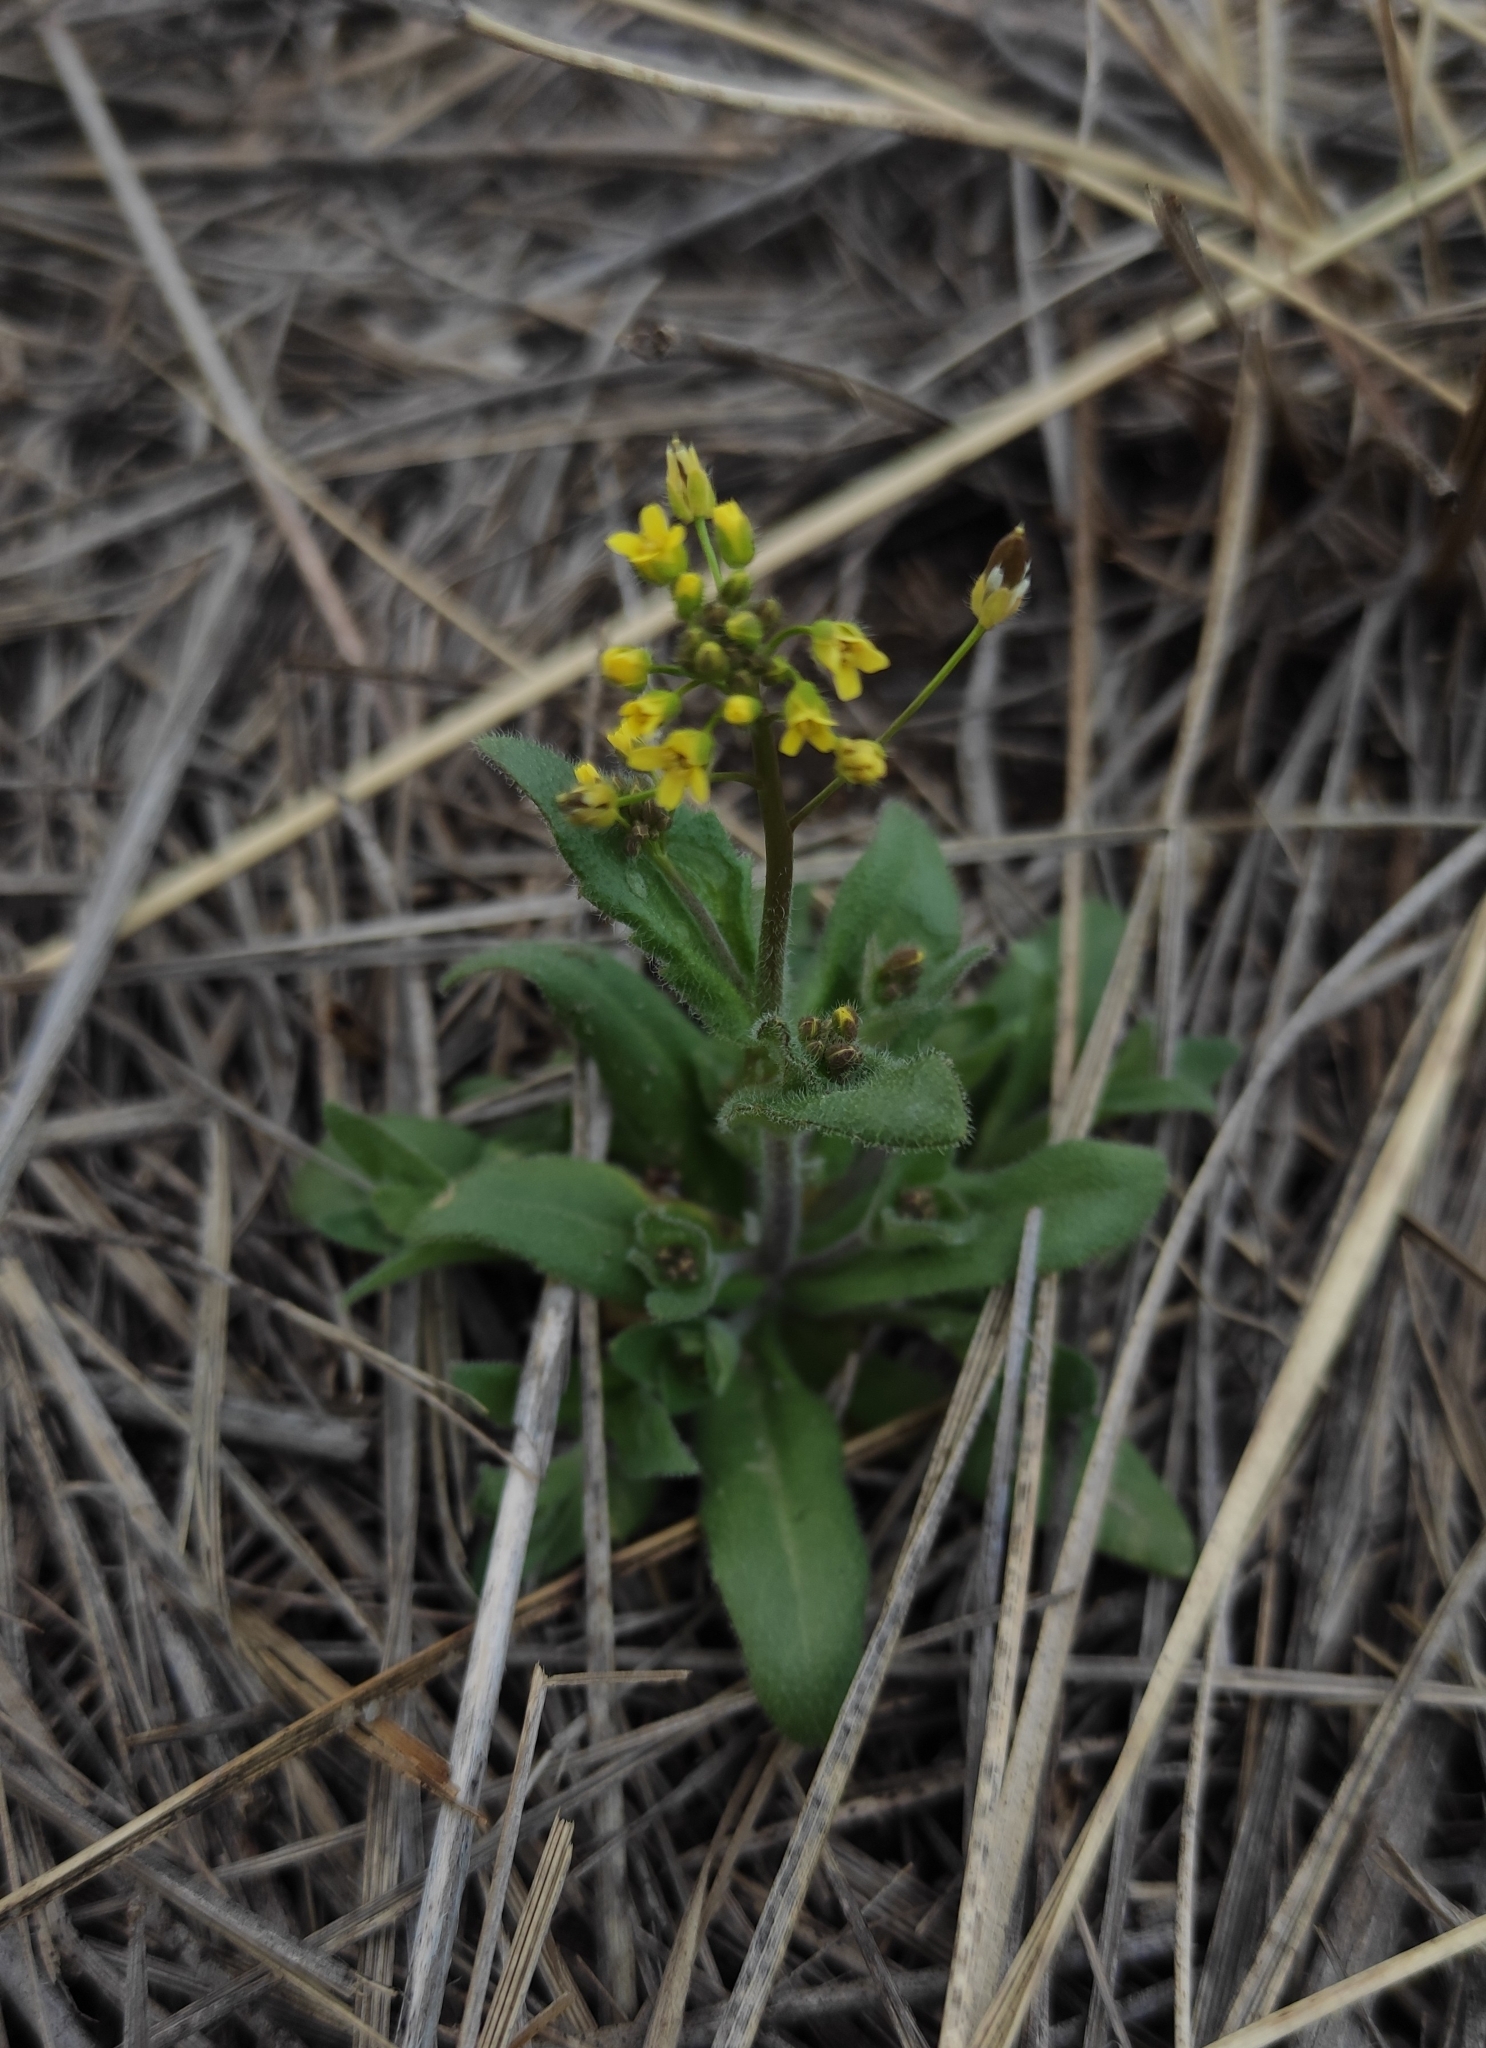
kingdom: Plantae
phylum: Tracheophyta
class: Magnoliopsida
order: Brassicales
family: Brassicaceae
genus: Draba
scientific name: Draba nemorosa
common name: Wood whitlow-grass
